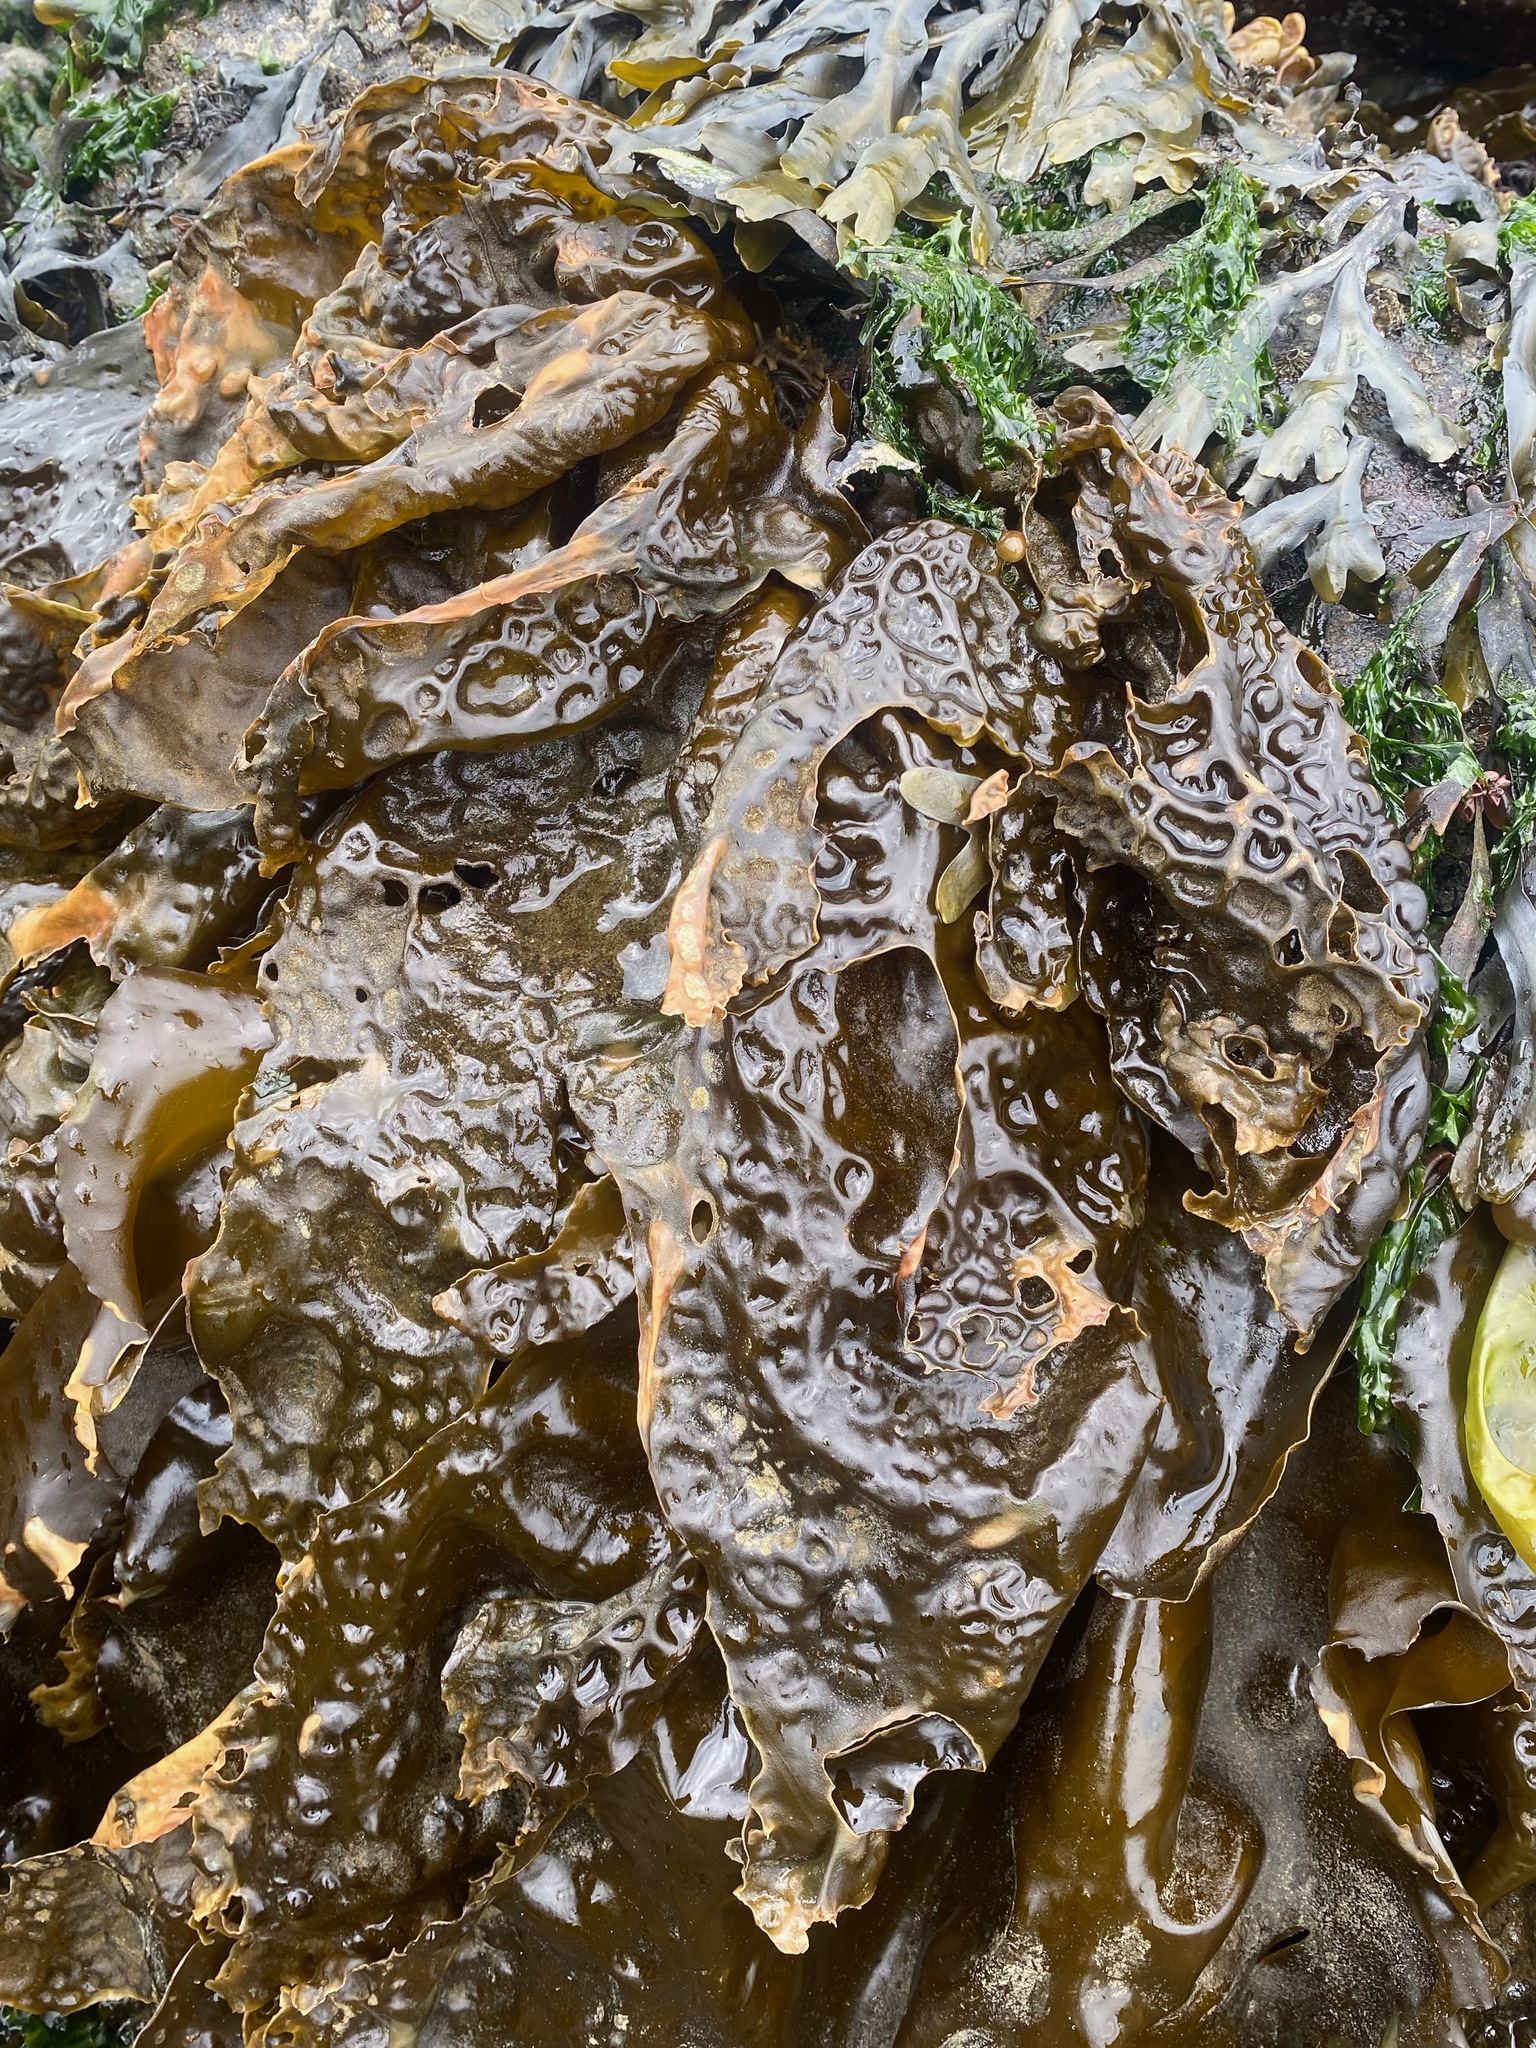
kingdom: Chromista
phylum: Ochrophyta
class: Phaeophyceae
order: Laminariales
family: Laminariaceae
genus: Hedophyllum
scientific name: Hedophyllum sessile
